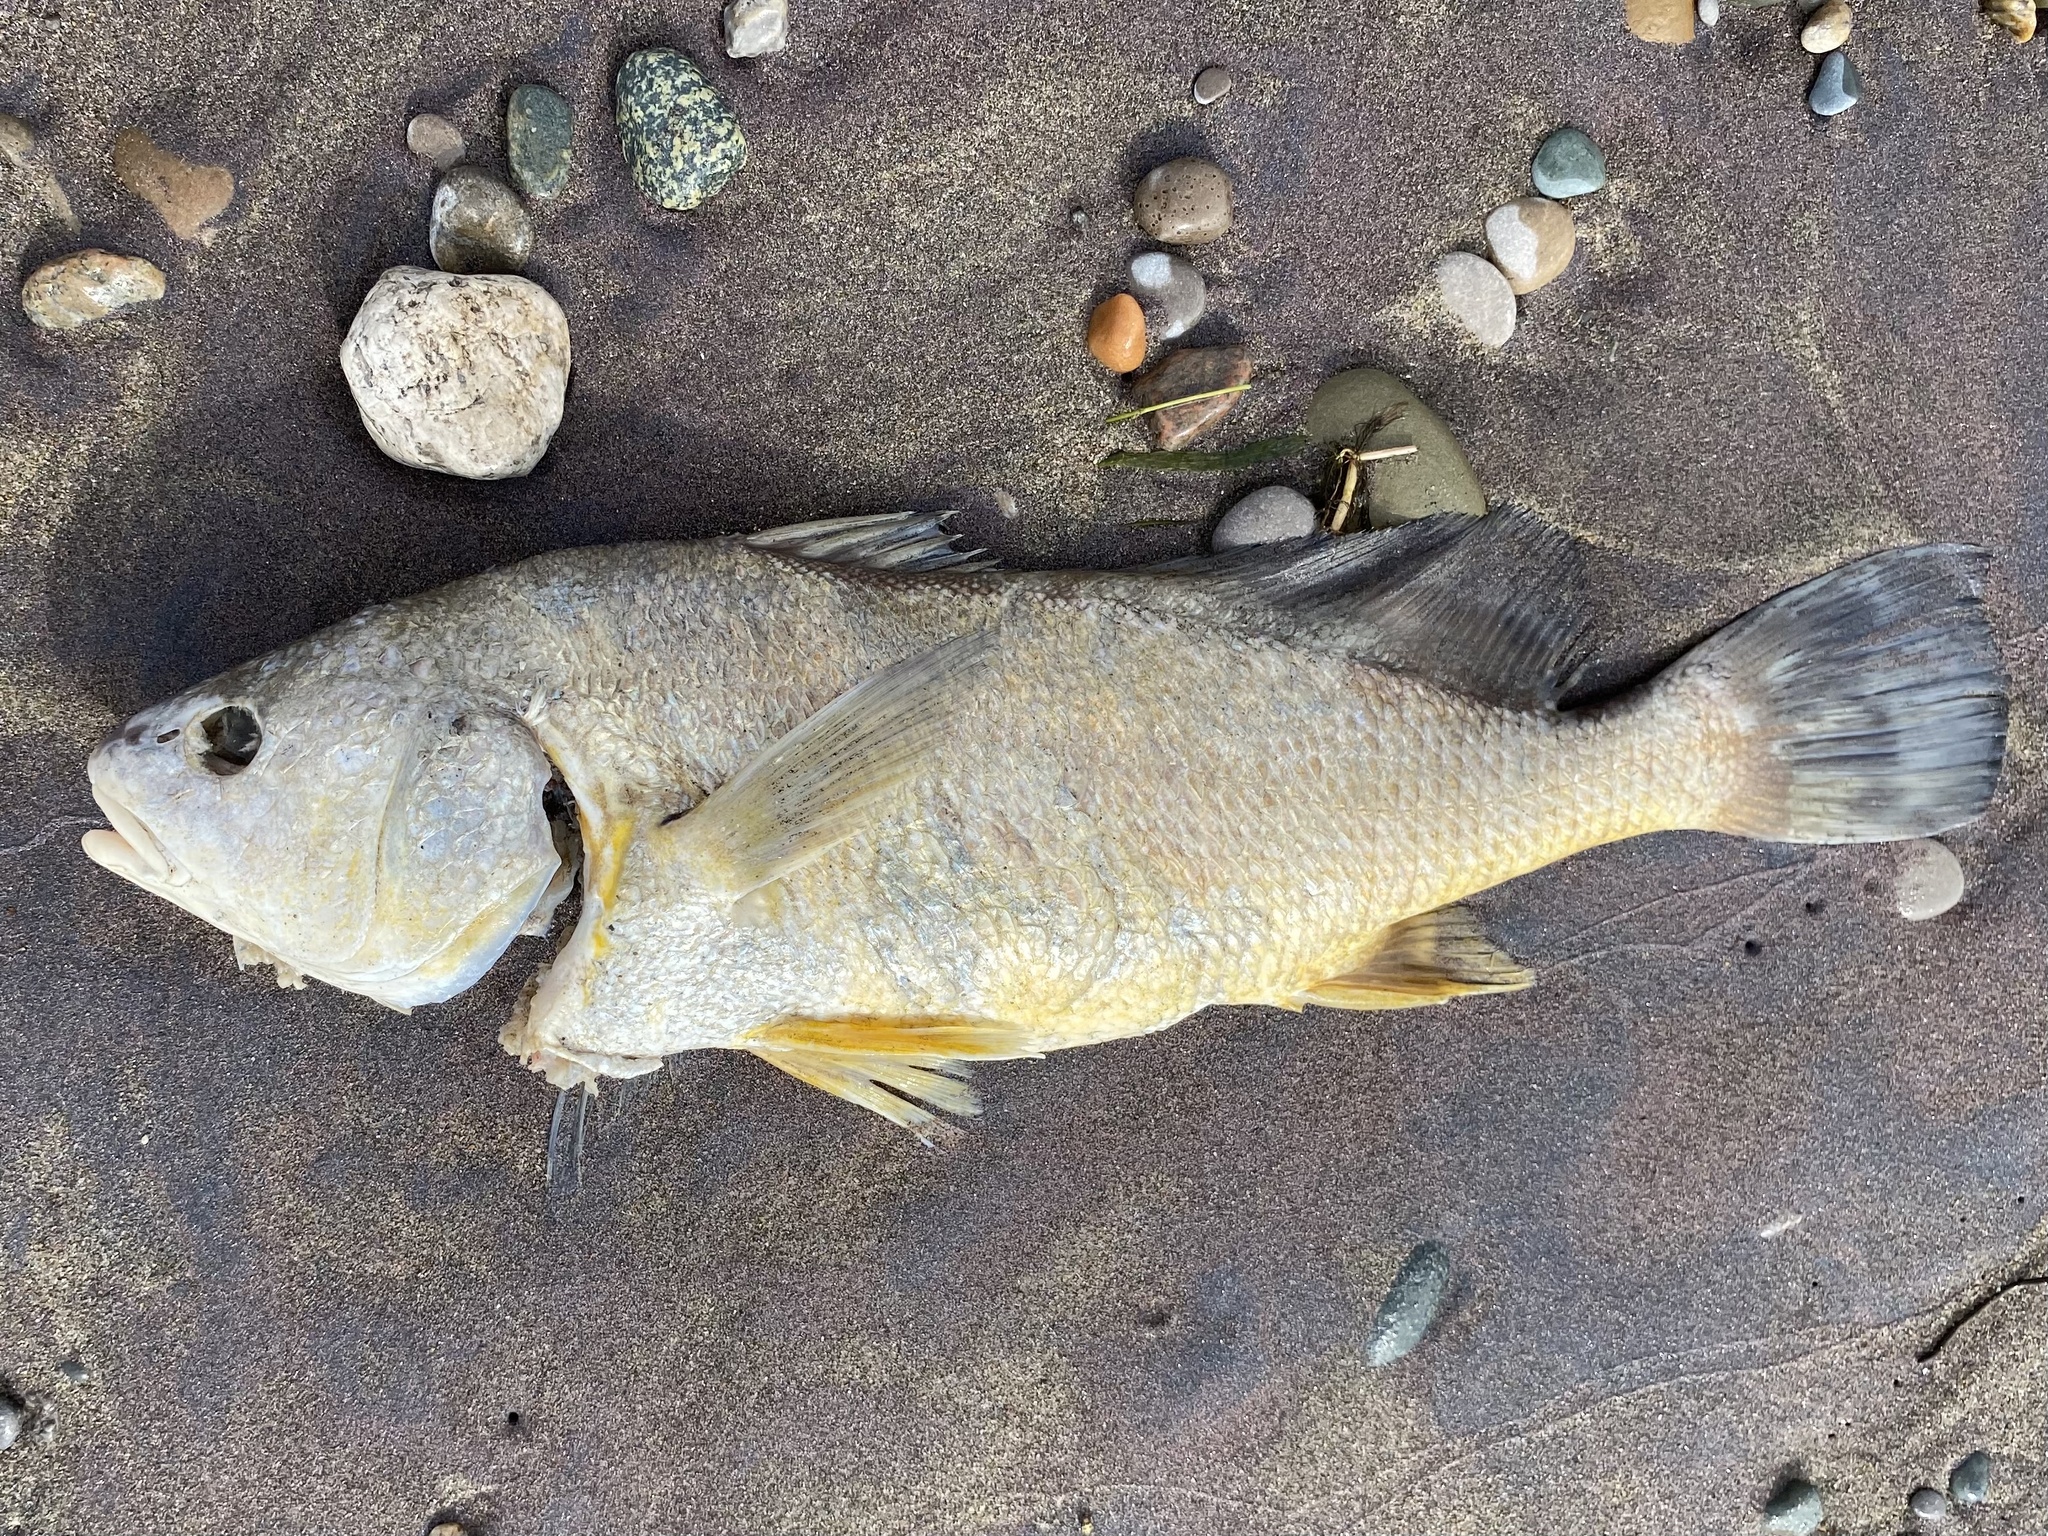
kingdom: Animalia
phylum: Chordata
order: Perciformes
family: Sciaenidae
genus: Aplodinotus
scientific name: Aplodinotus grunniens
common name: Freshwater drum
